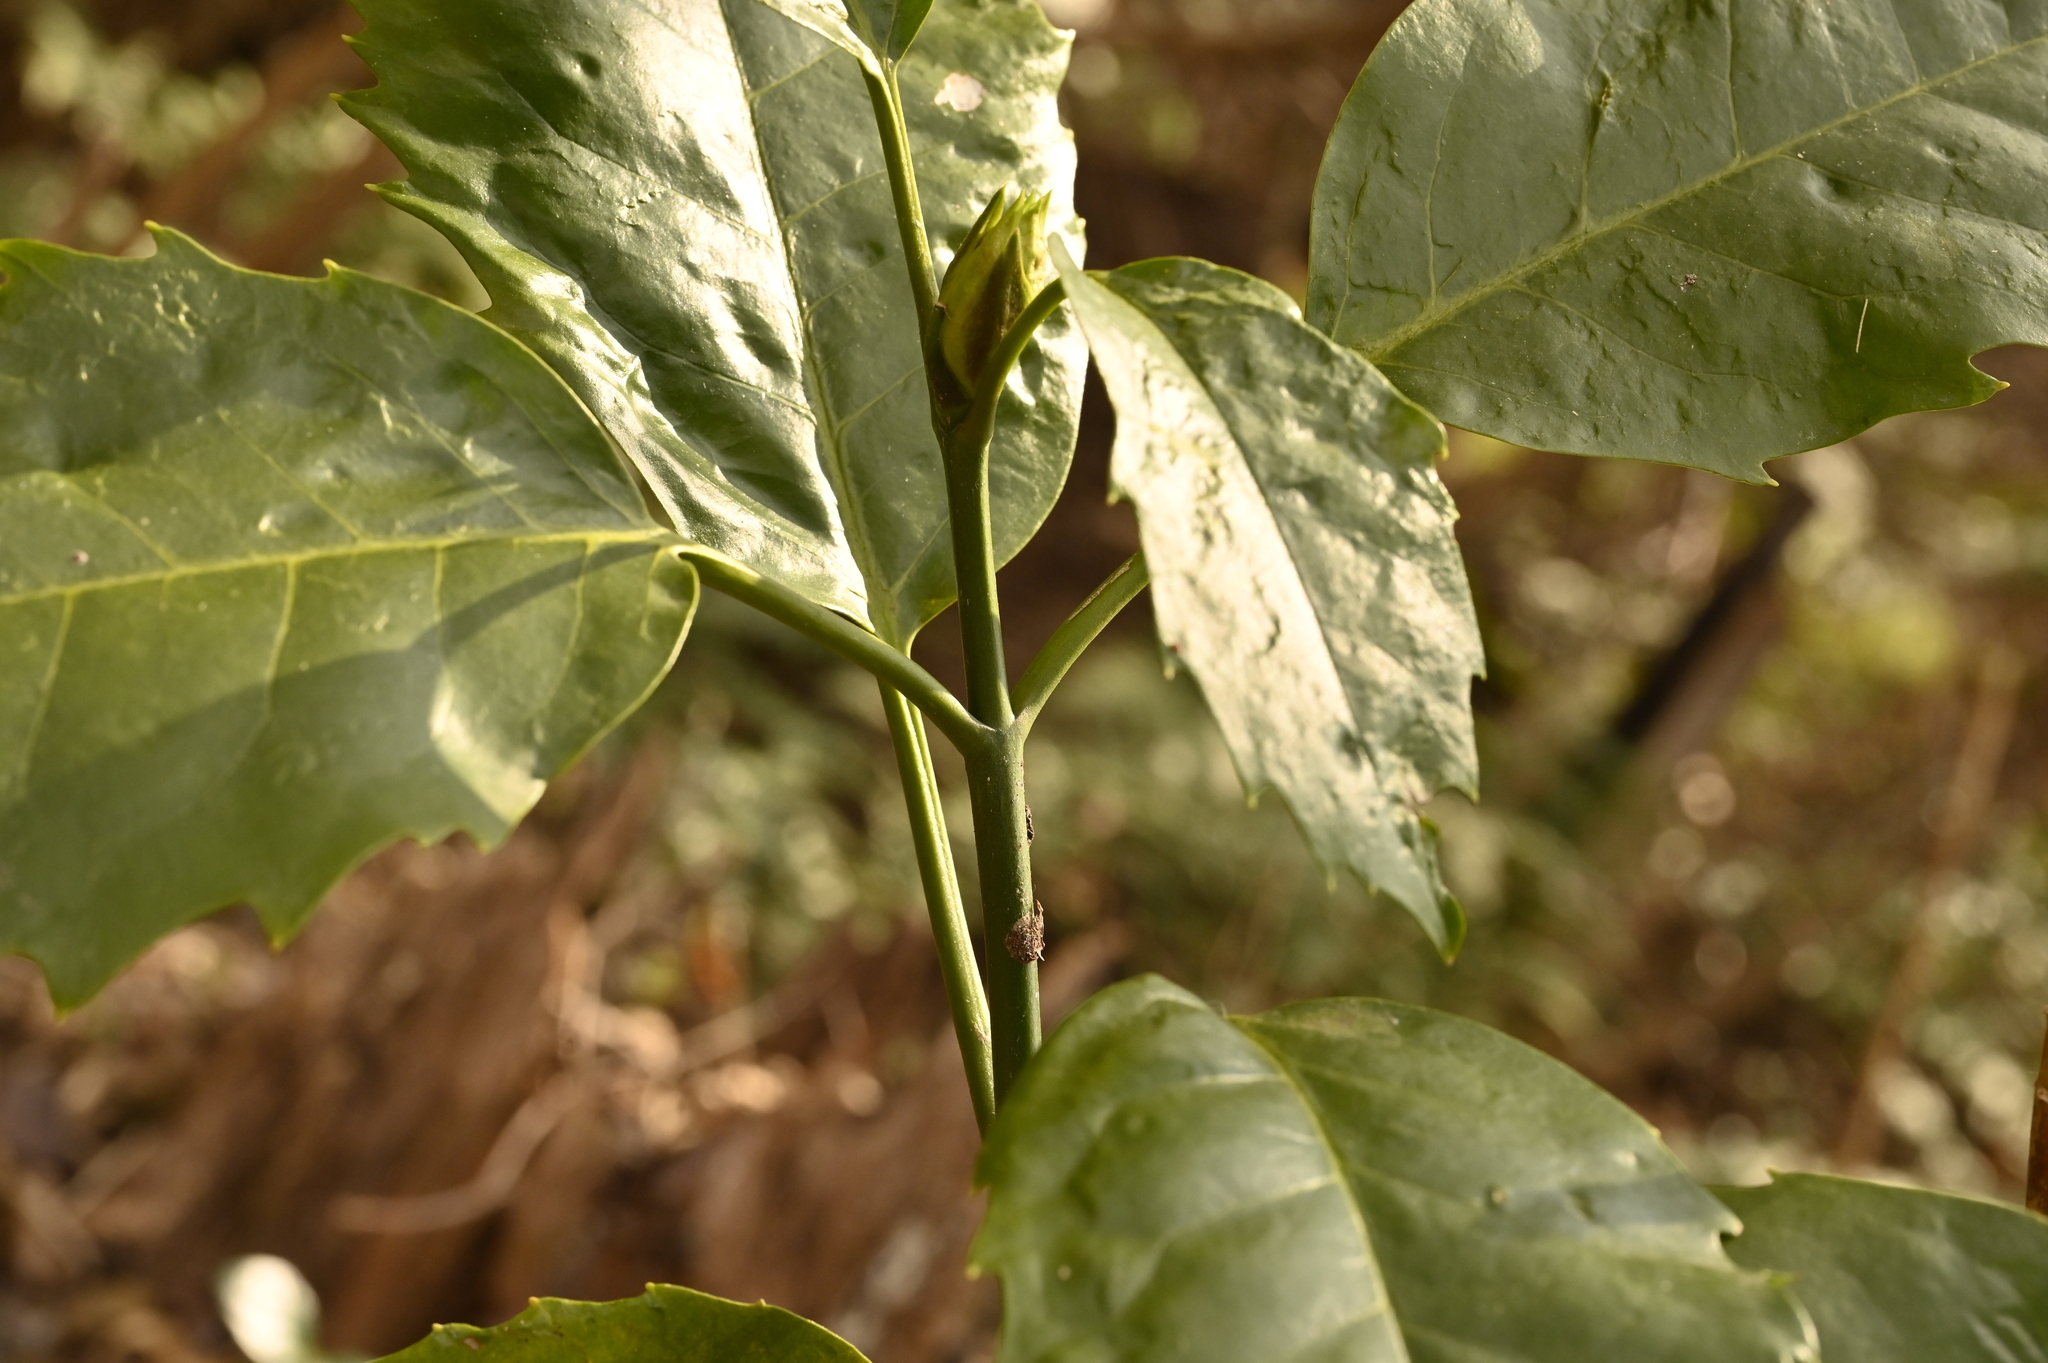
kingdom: Plantae
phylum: Tracheophyta
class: Magnoliopsida
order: Garryales
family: Garryaceae
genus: Aucuba
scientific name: Aucuba japonica
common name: Spotted-laurel
